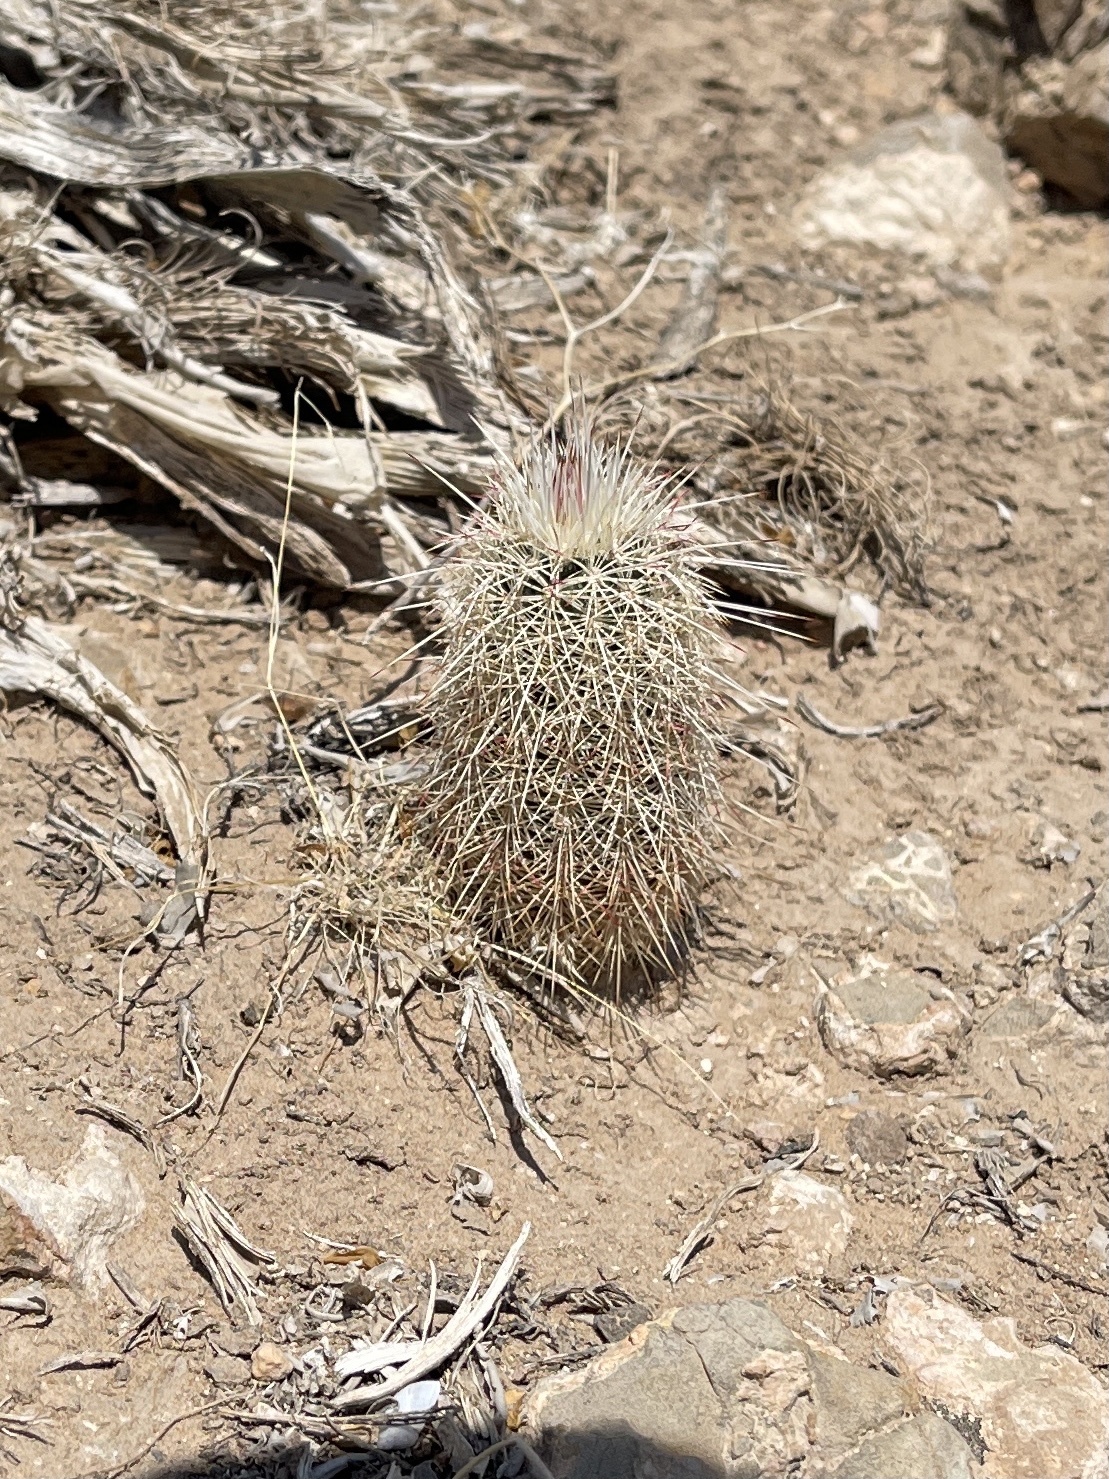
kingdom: Plantae
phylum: Tracheophyta
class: Magnoliopsida
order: Caryophyllales
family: Cactaceae
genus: Echinocereus
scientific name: Echinocereus viridiflorus
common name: Nylon hedgehog cactus
